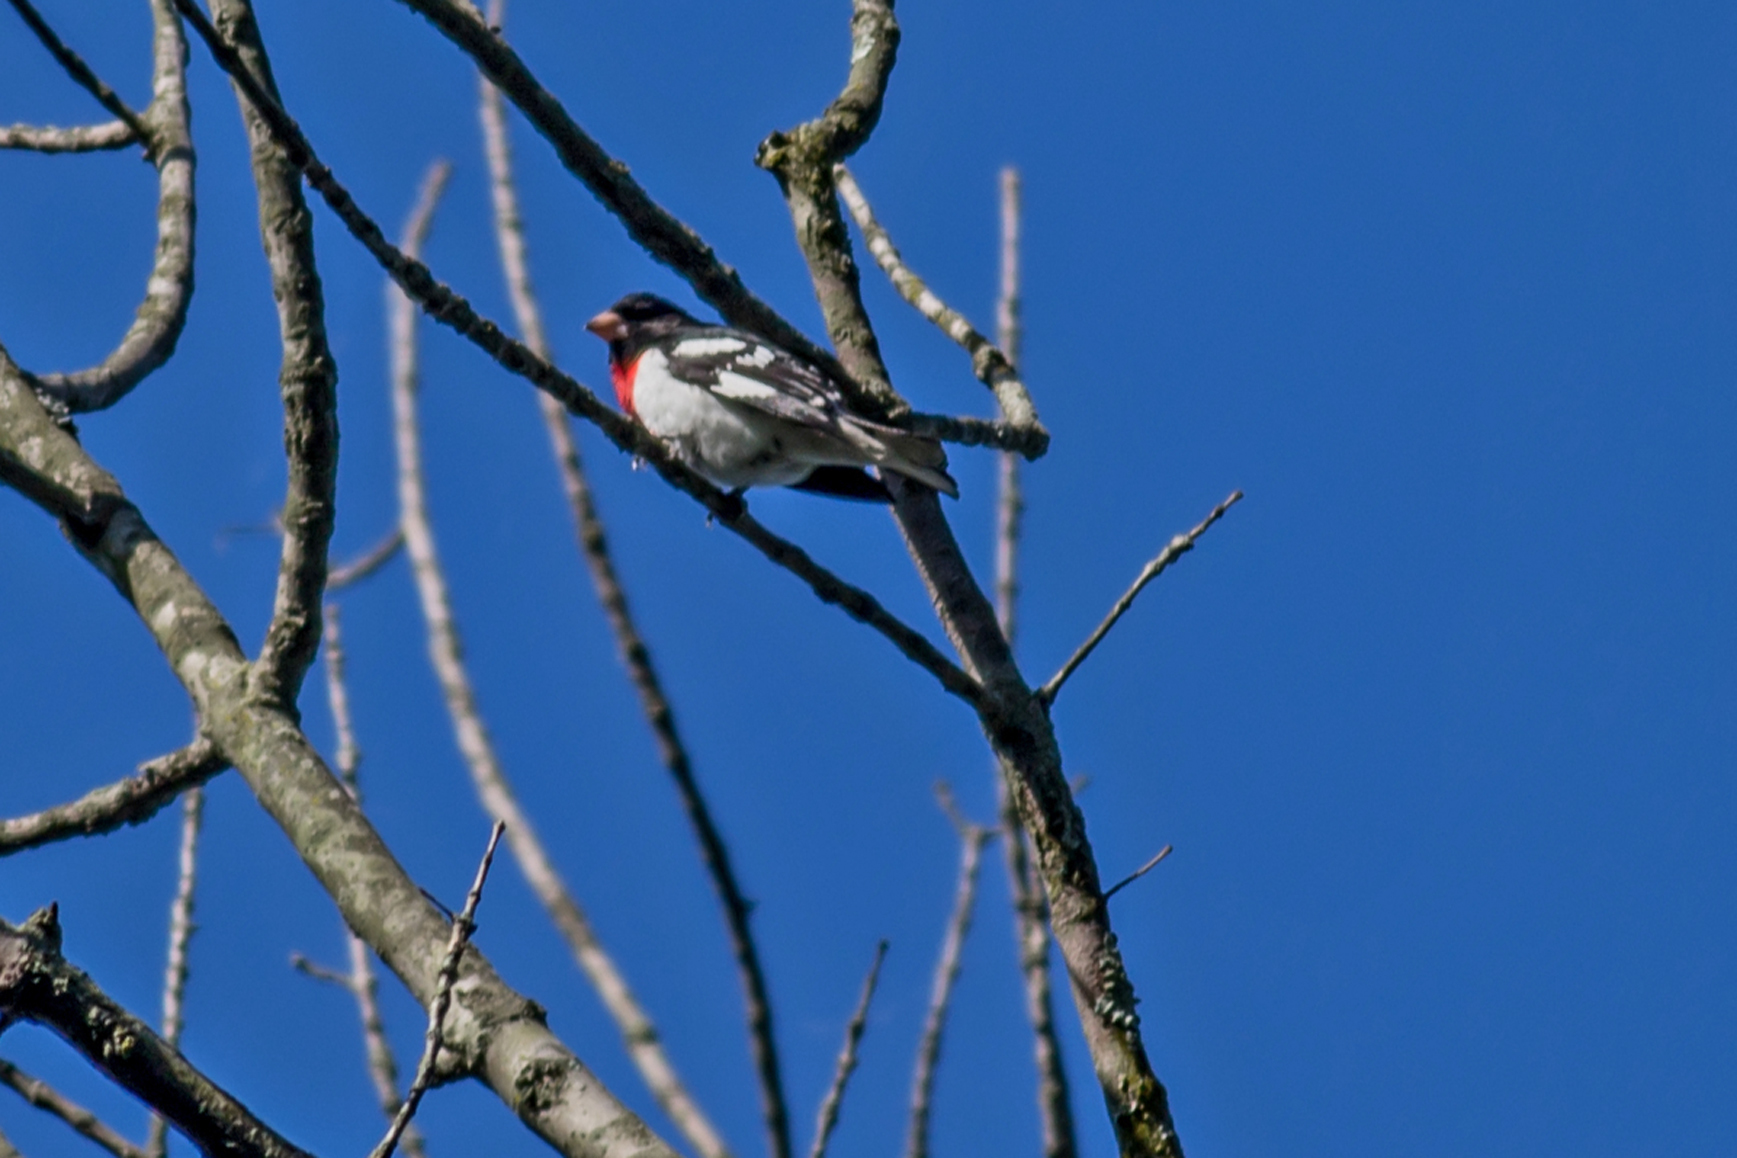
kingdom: Animalia
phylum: Chordata
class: Aves
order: Passeriformes
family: Cardinalidae
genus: Pheucticus
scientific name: Pheucticus ludovicianus
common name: Rose-breasted grosbeak
